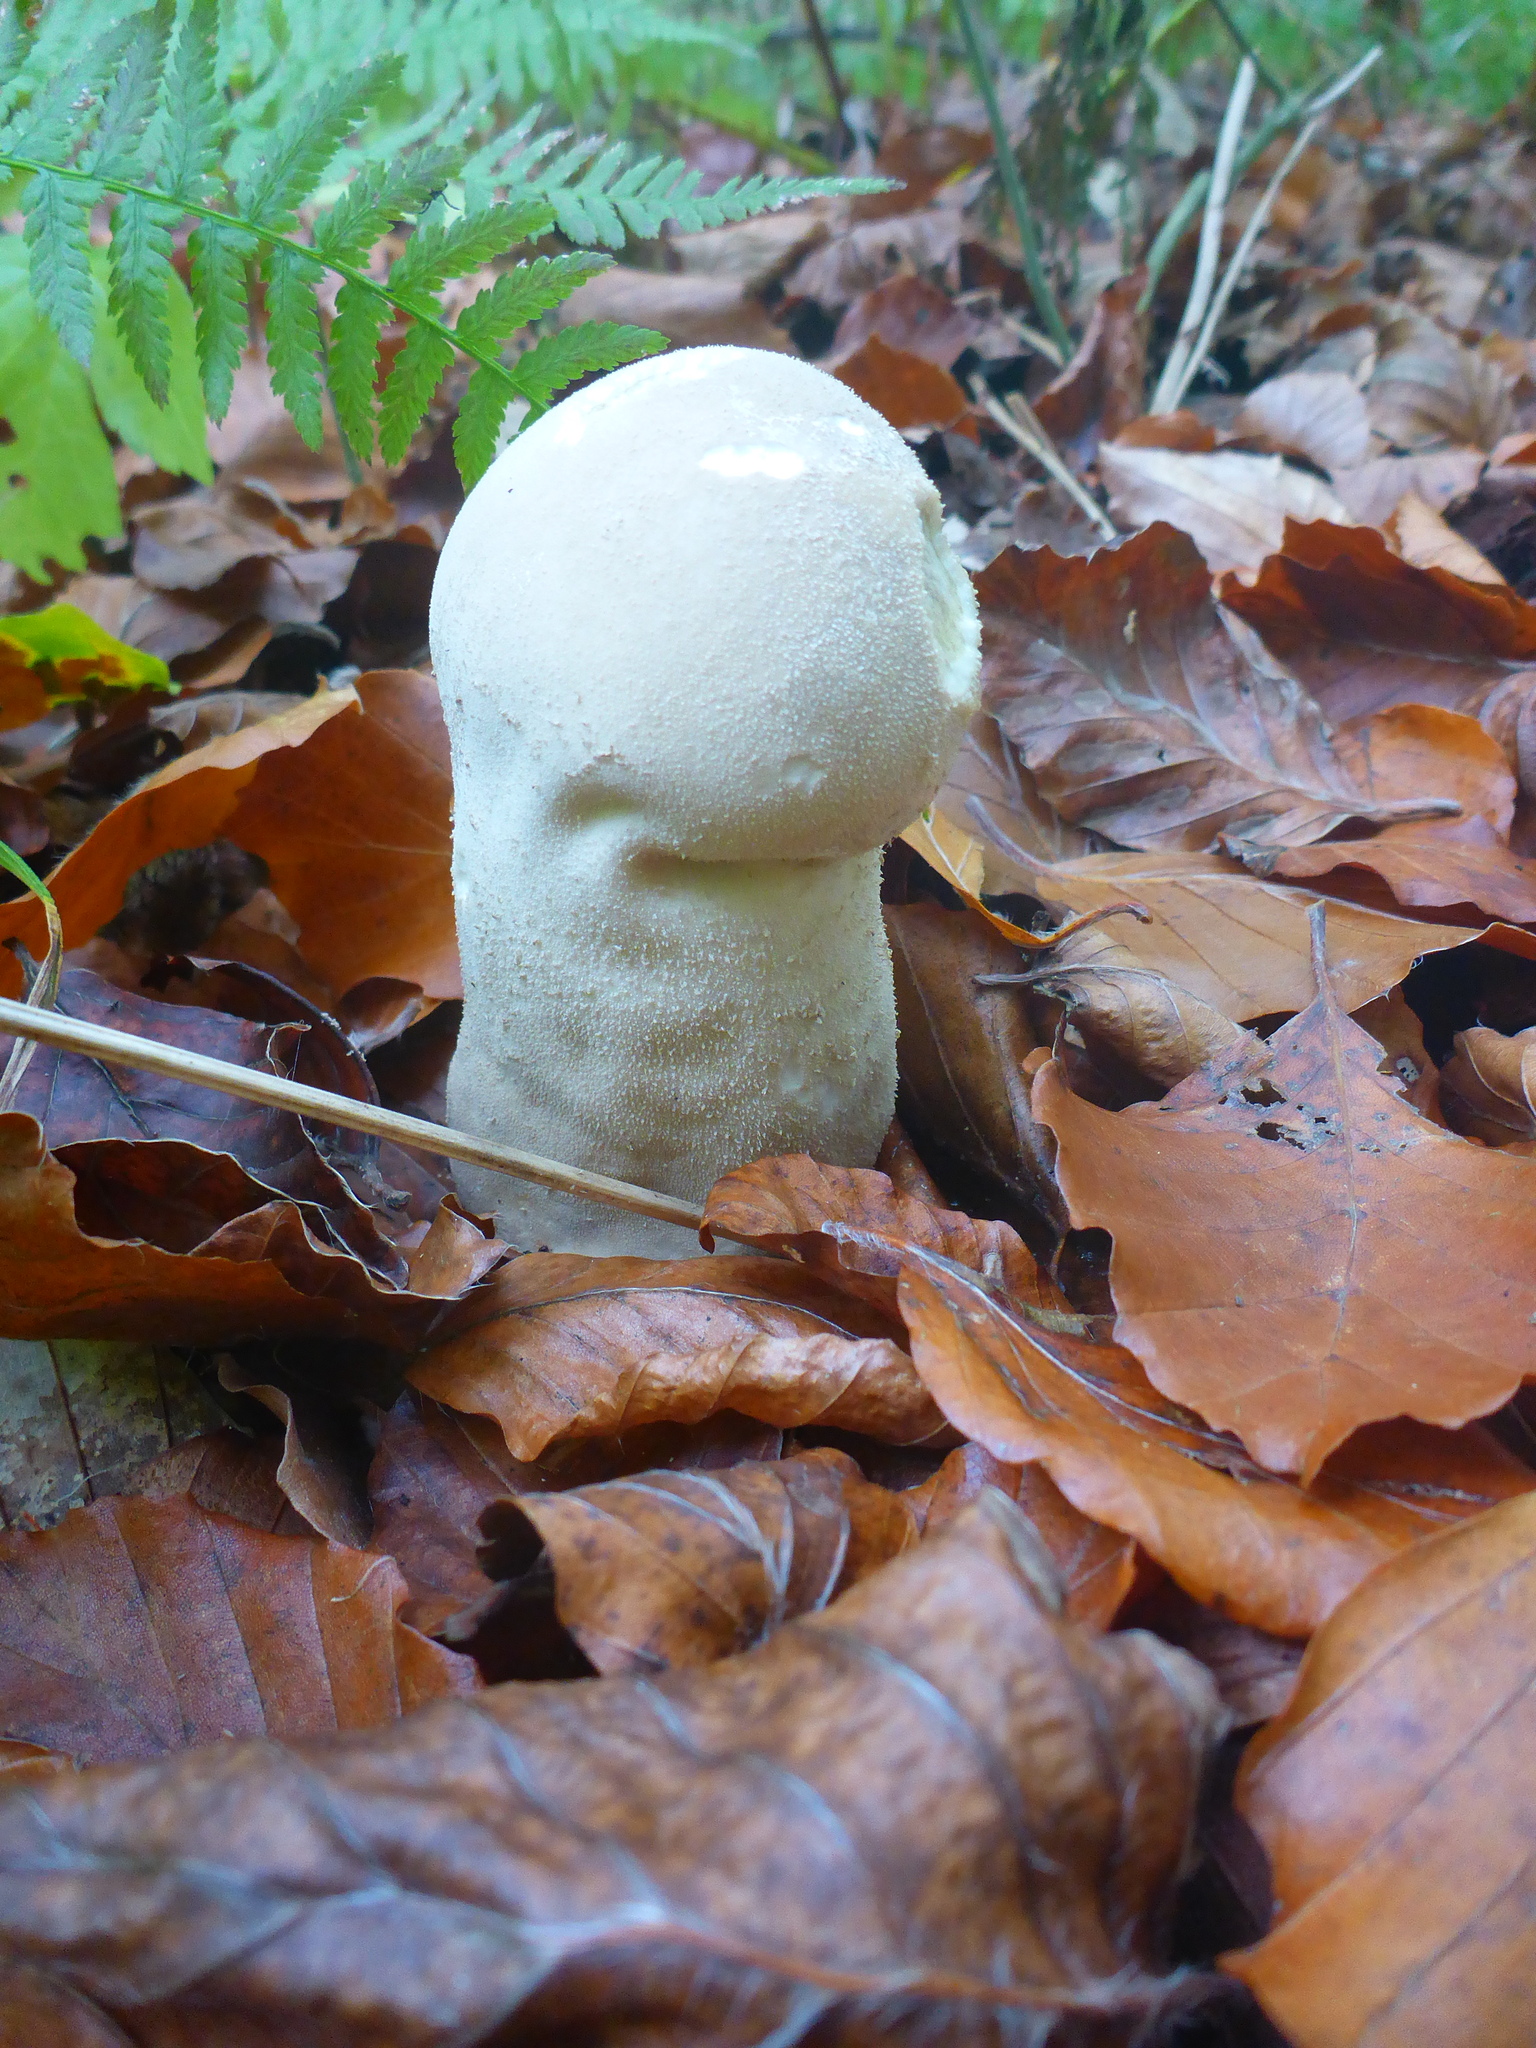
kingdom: Fungi
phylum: Basidiomycota
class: Agaricomycetes
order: Agaricales
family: Lycoperdaceae
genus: Lycoperdon
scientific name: Lycoperdon excipuliforme
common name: Pestle puffball
